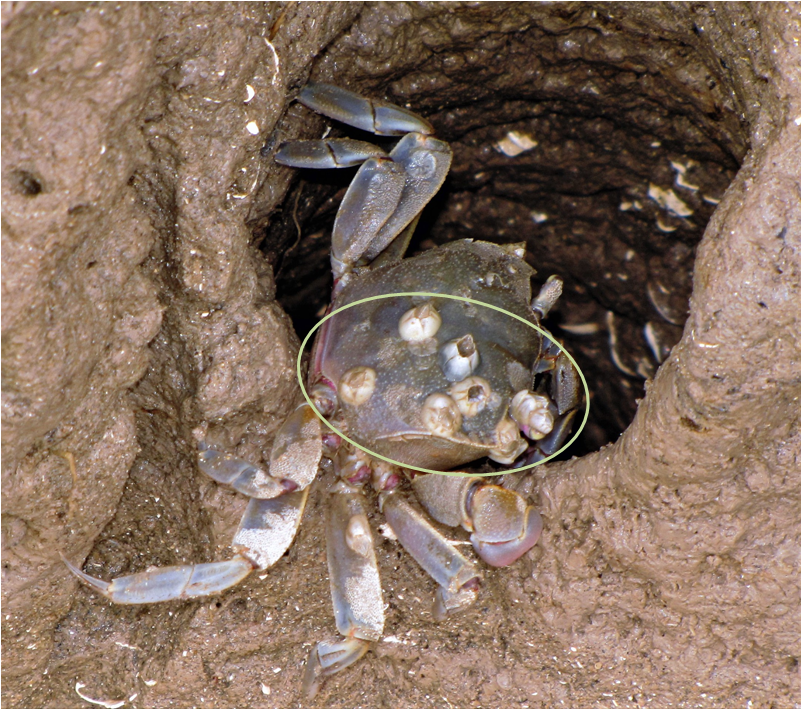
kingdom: Animalia
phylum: Arthropoda
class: Maxillopoda
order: Sessilia
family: Balanidae
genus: Amphibalanus
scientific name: Amphibalanus improvisus
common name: Bay barnacle
